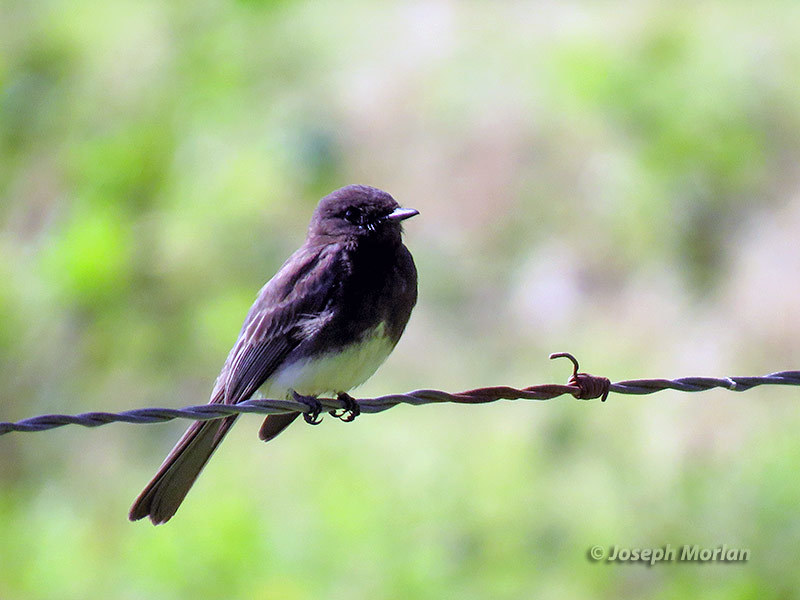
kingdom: Animalia
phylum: Chordata
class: Aves
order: Passeriformes
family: Tyrannidae
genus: Sayornis
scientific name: Sayornis nigricans
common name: Black phoebe
